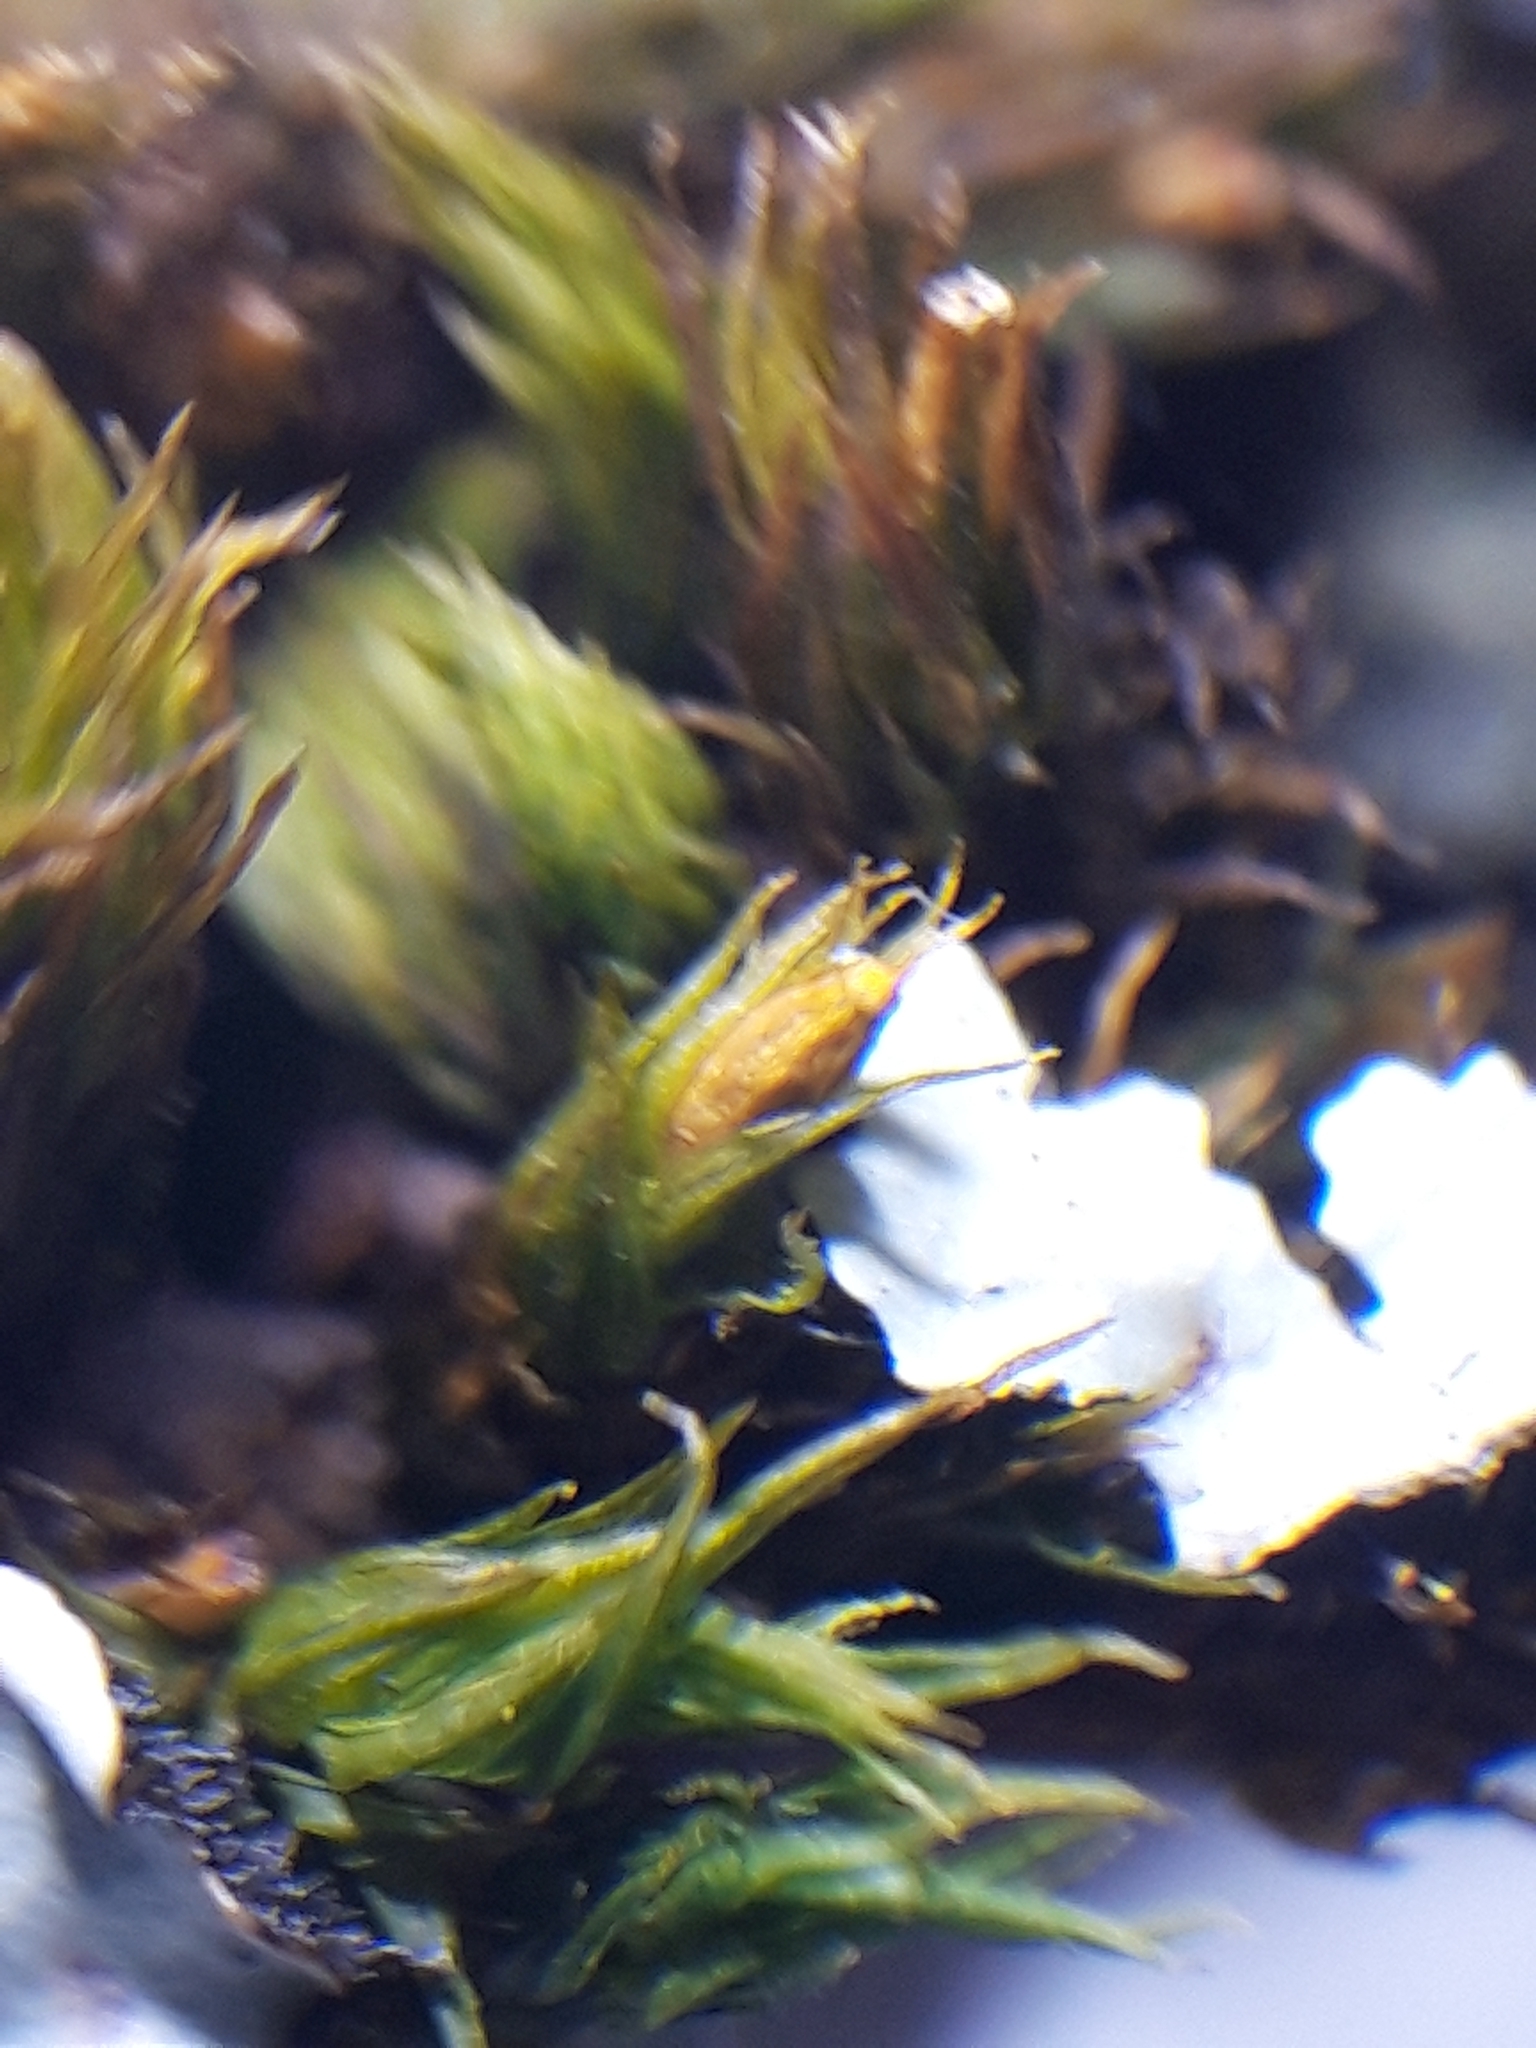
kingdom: Plantae
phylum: Bryophyta
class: Bryopsida
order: Orthotrichales
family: Orthotrichaceae
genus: Lewinskya
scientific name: Lewinskya acuminata
